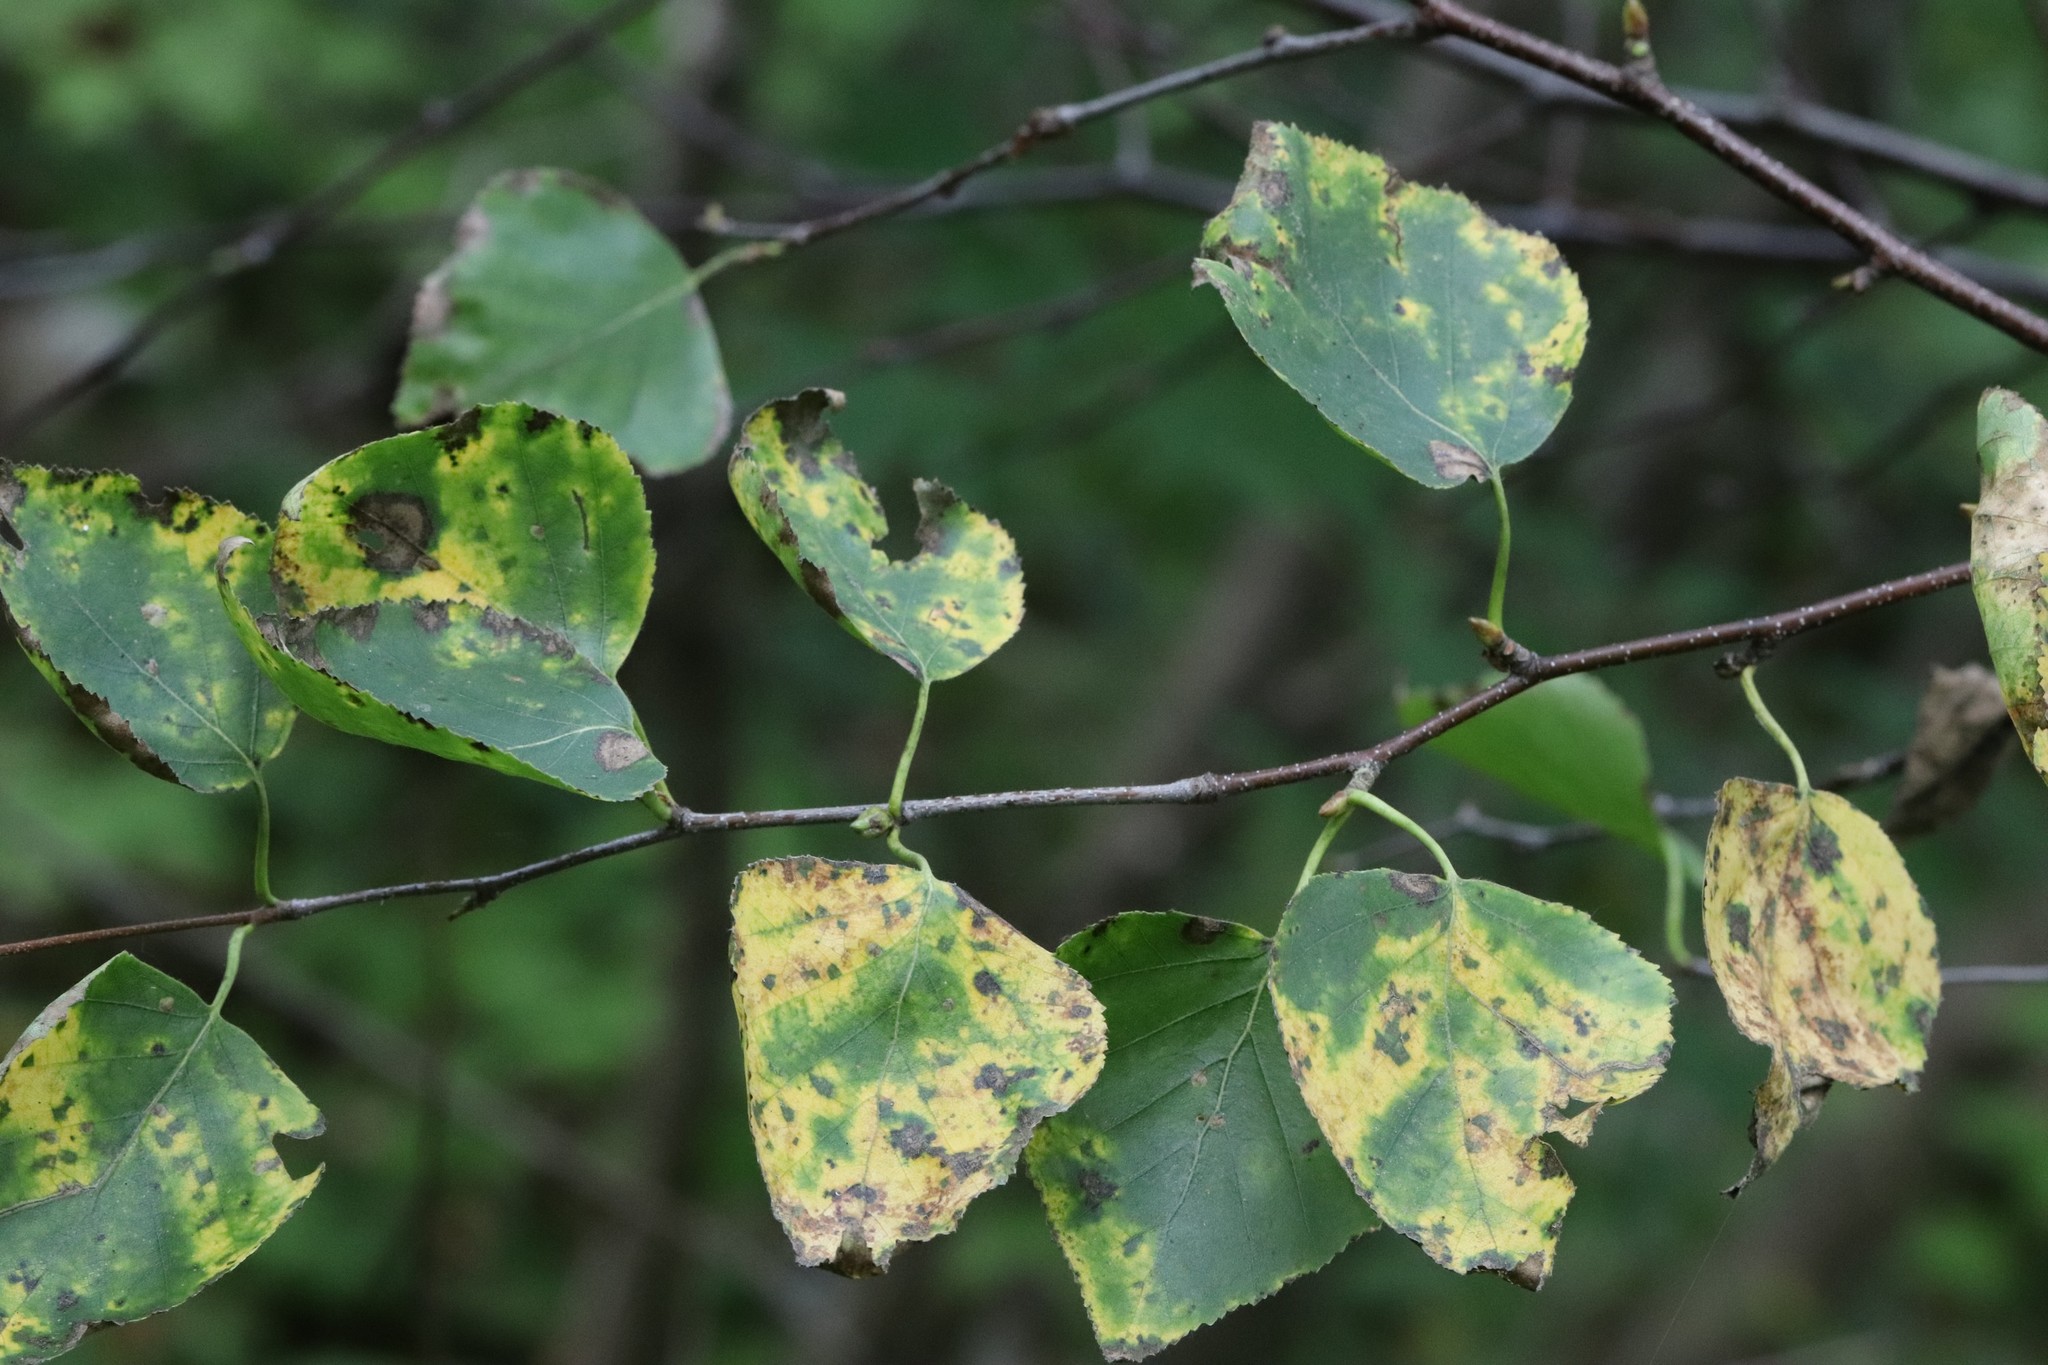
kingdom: Plantae
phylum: Tracheophyta
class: Magnoliopsida
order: Fagales
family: Betulaceae
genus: Betula
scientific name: Betula pendula
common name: Silver birch
